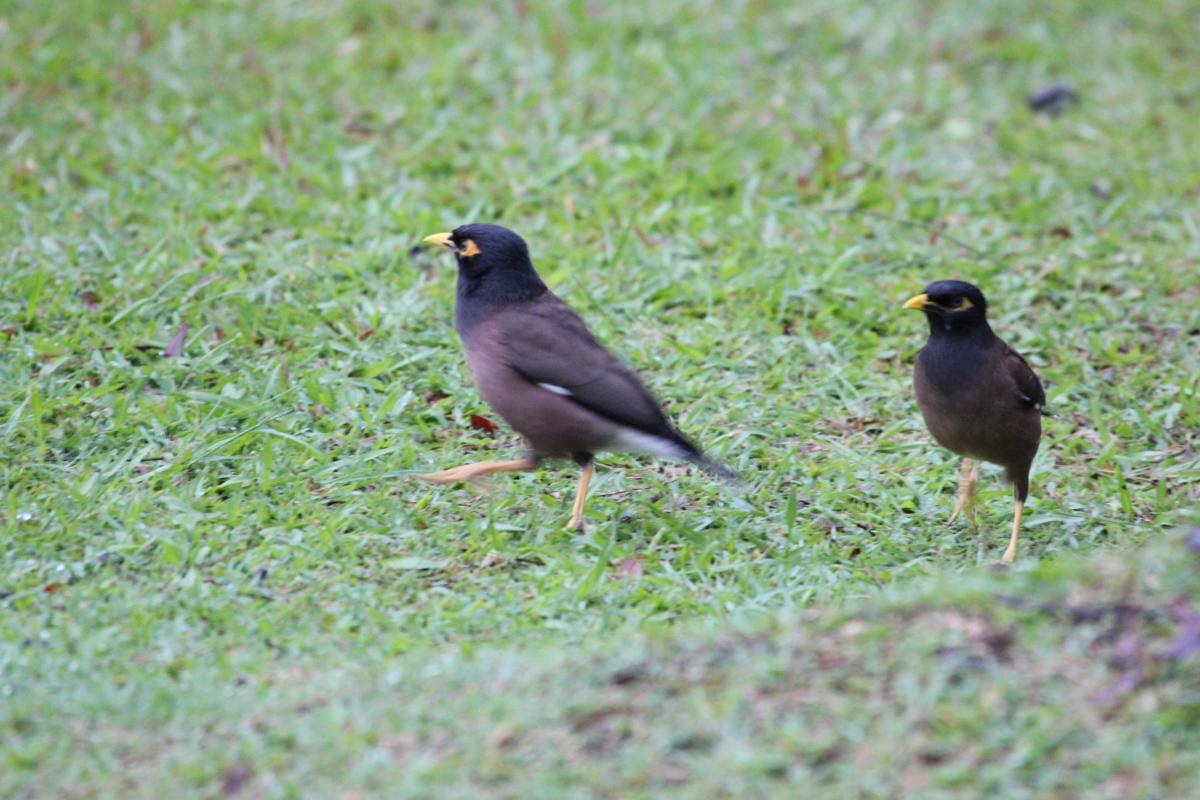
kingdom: Animalia
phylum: Chordata
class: Aves
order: Passeriformes
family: Sturnidae
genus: Acridotheres
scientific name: Acridotheres tristis
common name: Common myna
